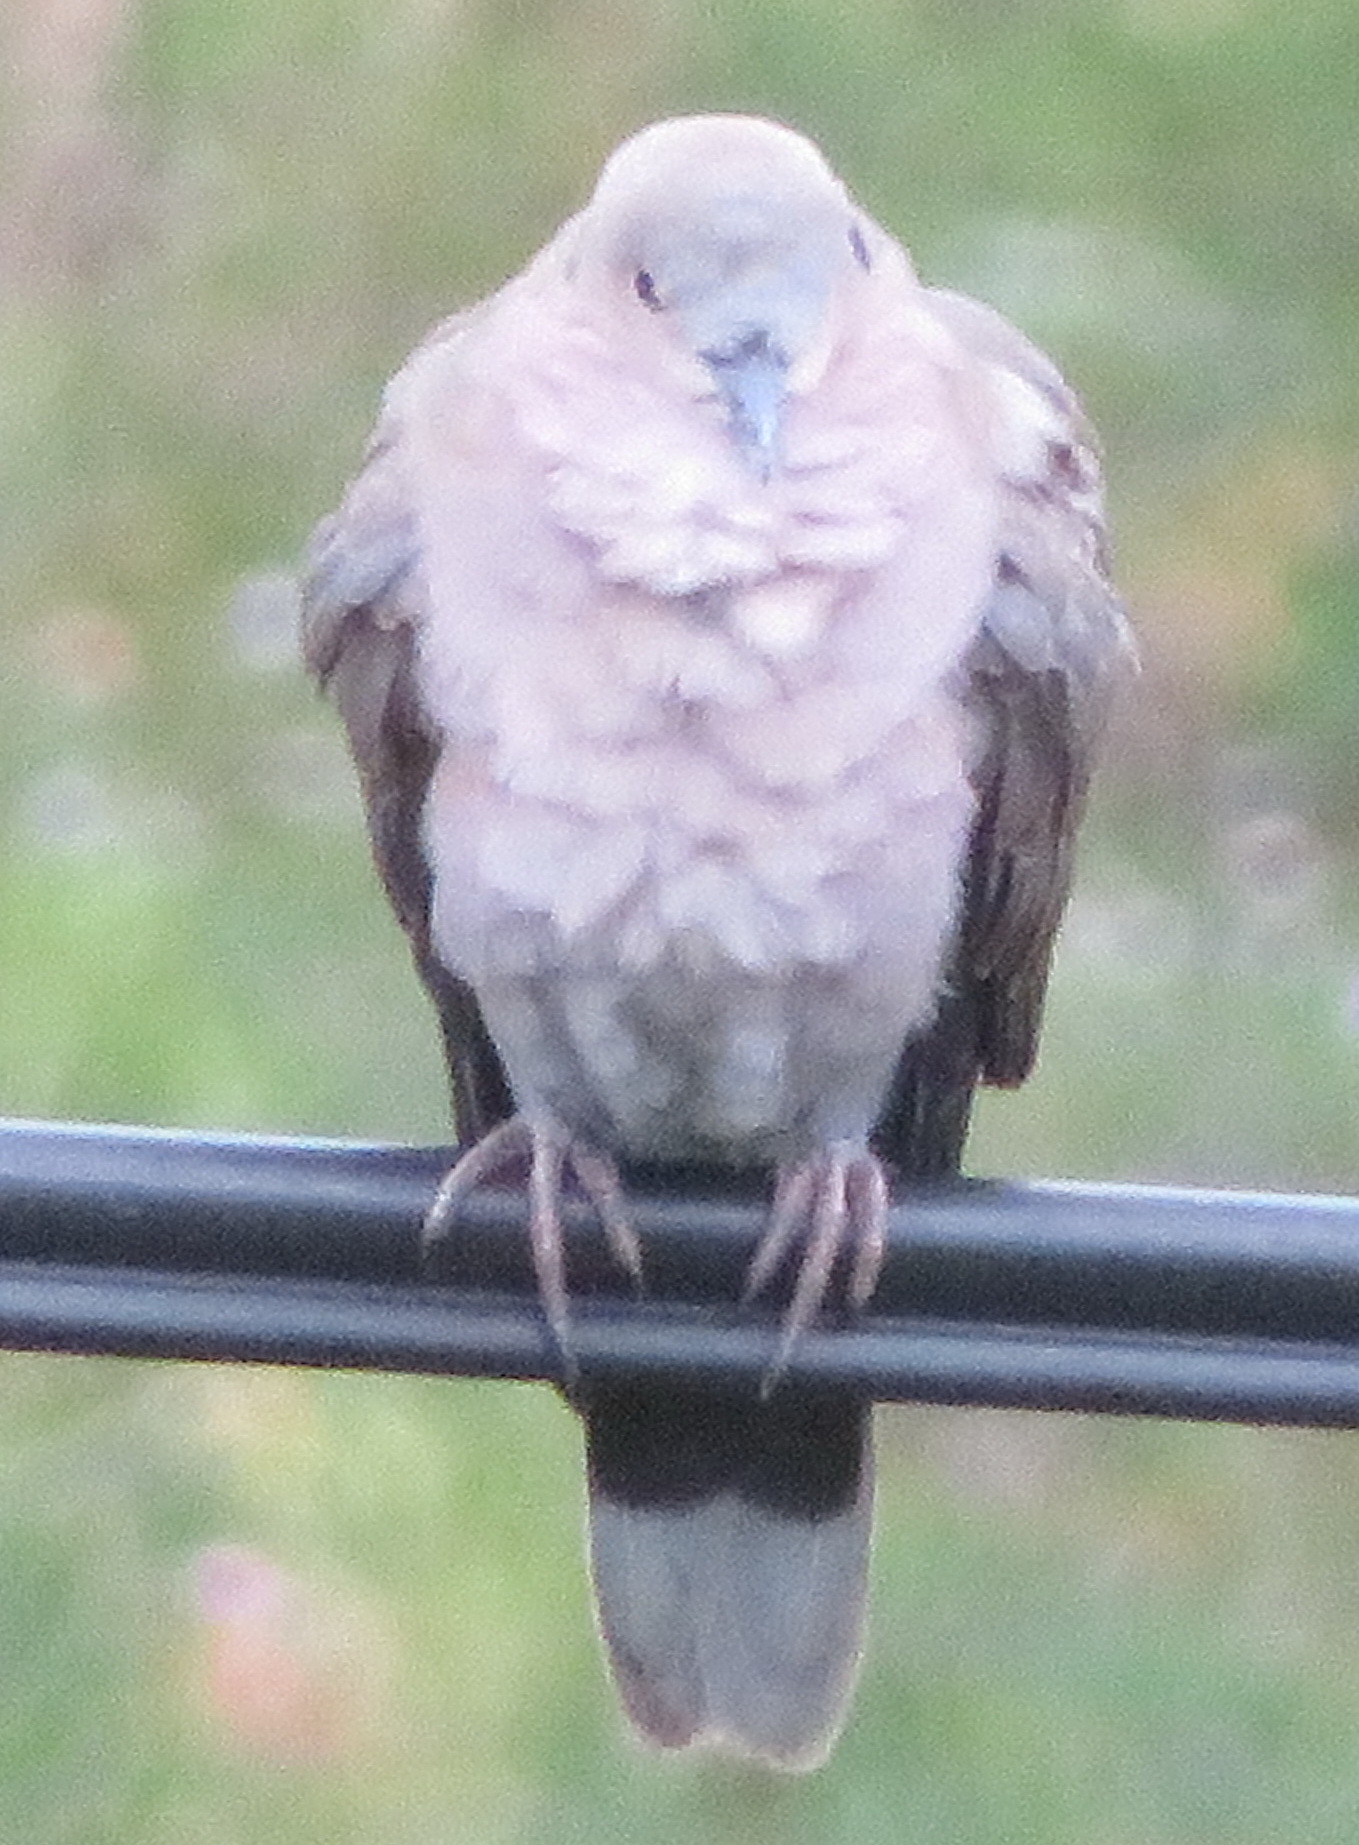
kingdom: Animalia
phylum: Chordata
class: Aves
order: Columbiformes
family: Columbidae
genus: Streptopelia
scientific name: Streptopelia semitorquata
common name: Red-eyed dove
